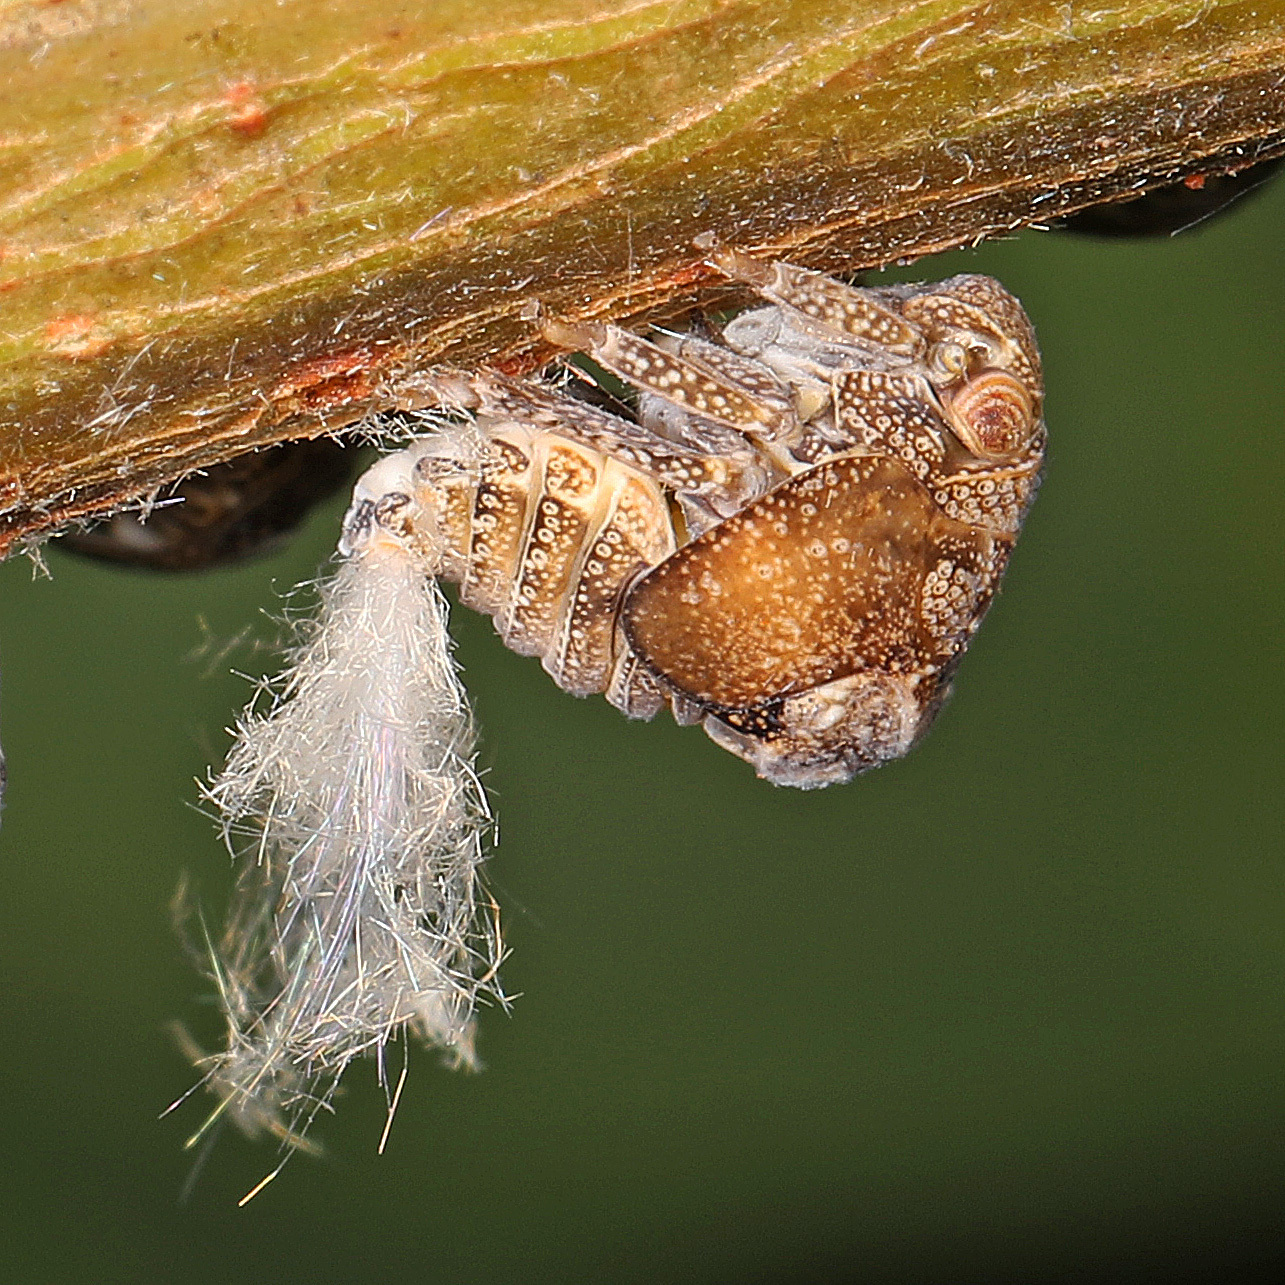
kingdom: Animalia
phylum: Arthropoda
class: Insecta
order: Hemiptera
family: Acanaloniidae
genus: Acanalonia
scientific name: Acanalonia bivittata
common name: Two-striped planthopper
